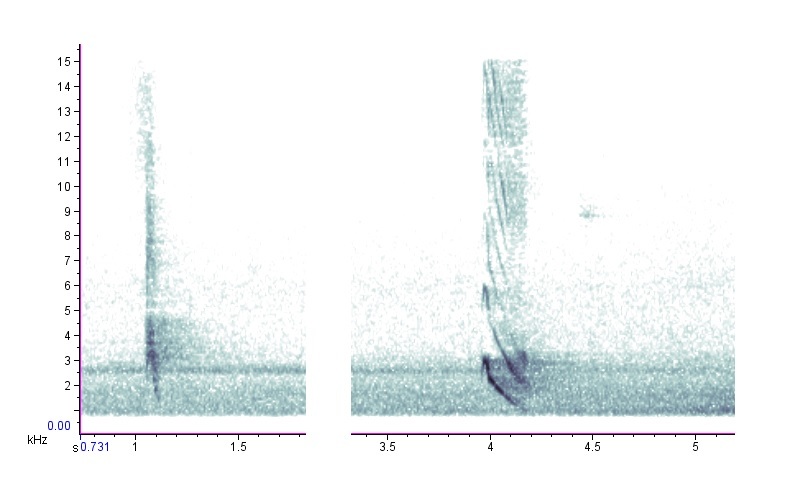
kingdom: Animalia
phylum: Chordata
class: Aves
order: Passeriformes
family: Mimidae
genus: Mimus
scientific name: Mimus polyglottos
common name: Northern mockingbird
